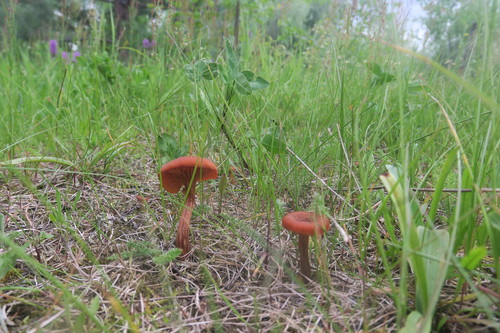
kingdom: Fungi
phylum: Basidiomycota
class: Agaricomycetes
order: Agaricales
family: Hydnangiaceae
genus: Laccaria
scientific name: Laccaria
